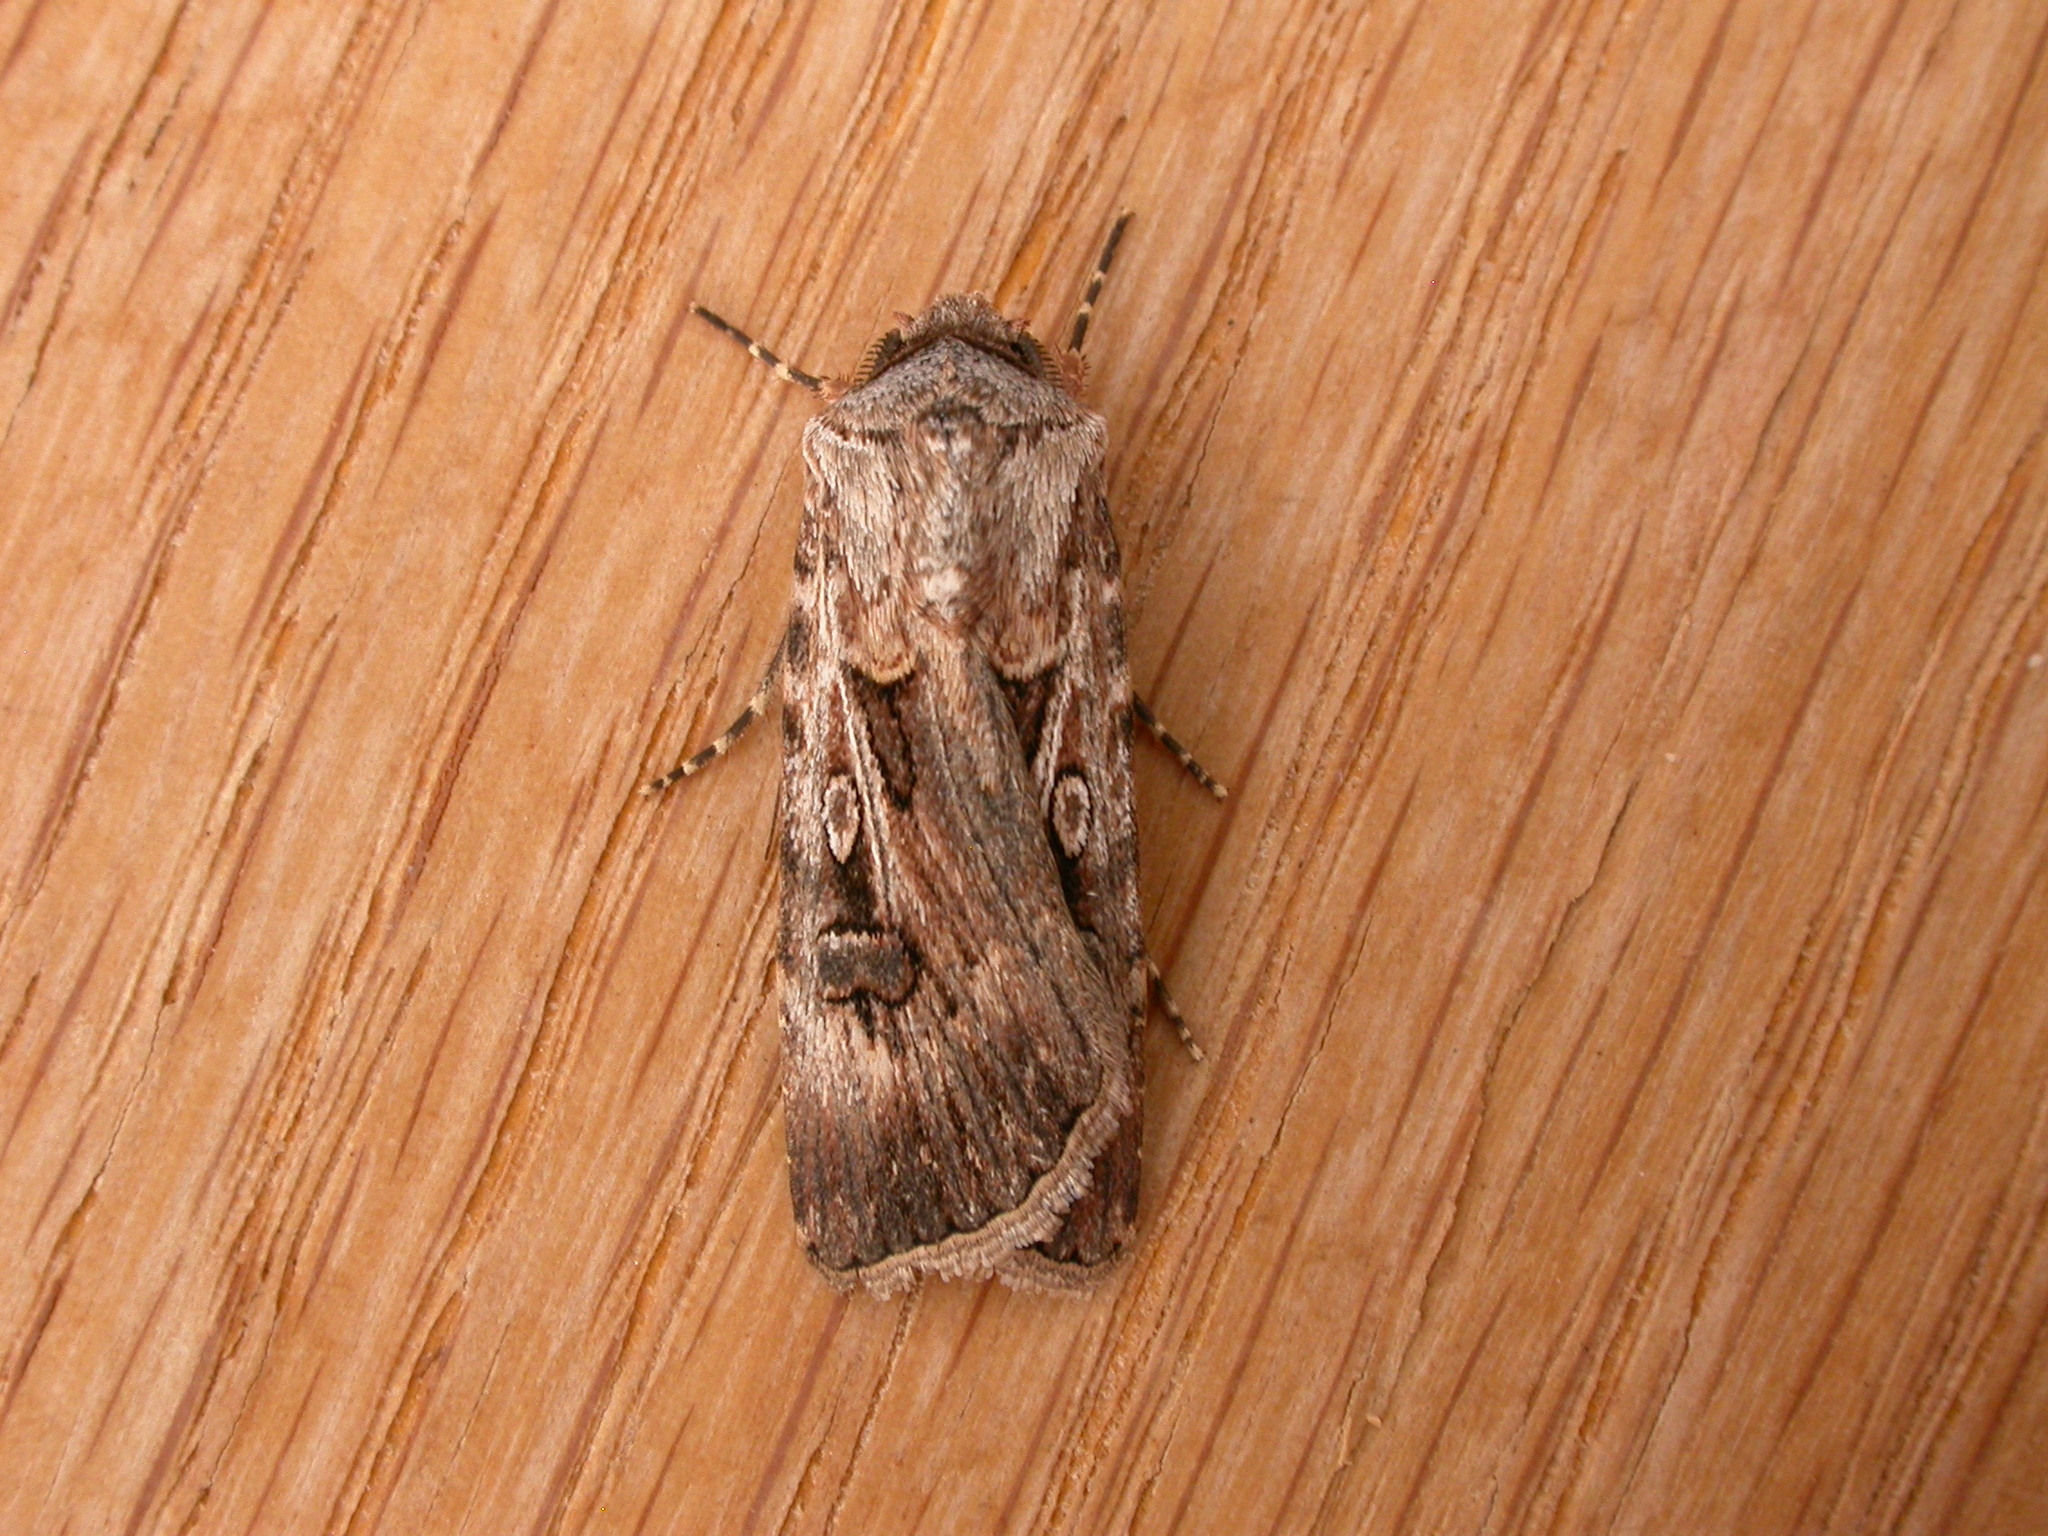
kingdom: Animalia
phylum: Arthropoda
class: Insecta
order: Lepidoptera
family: Noctuidae
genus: Agrotis
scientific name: Agrotis munda
